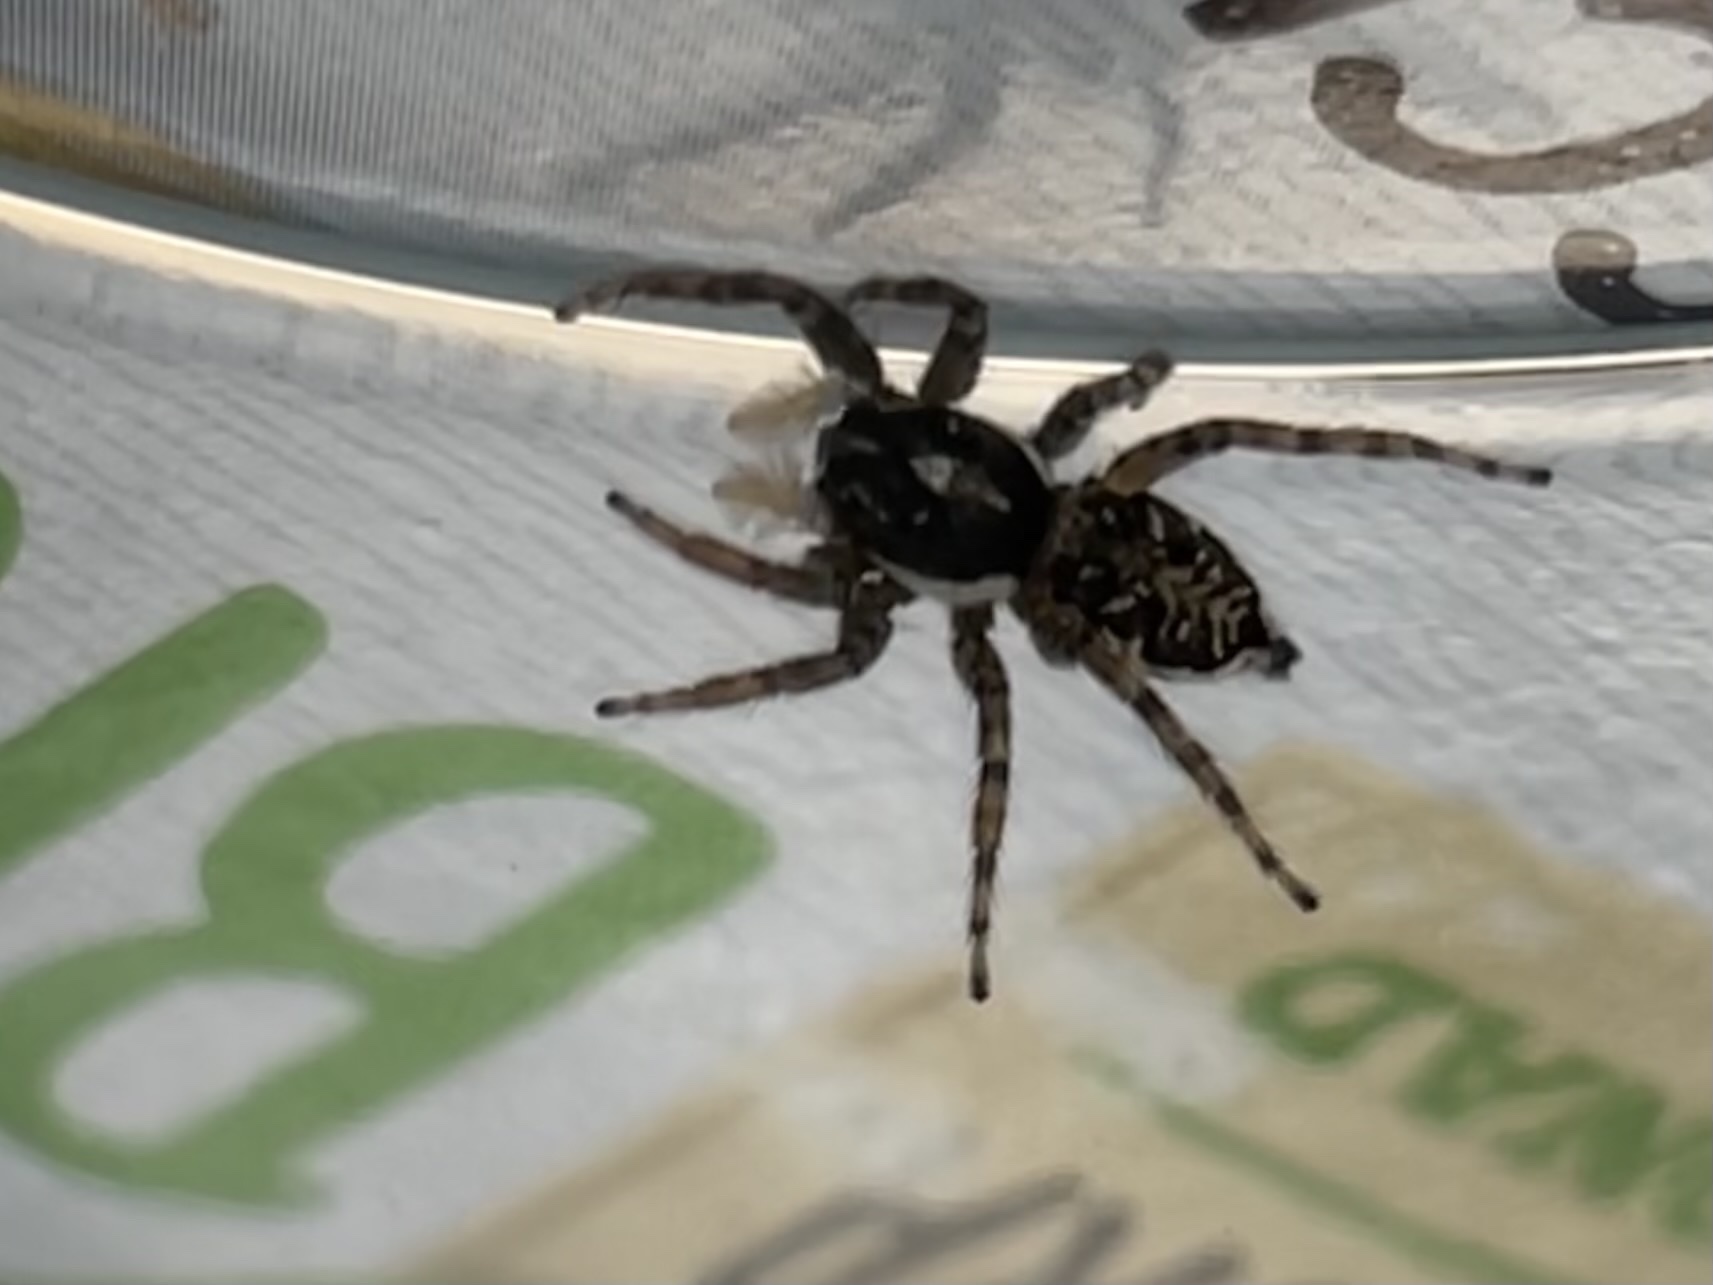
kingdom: Animalia
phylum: Arthropoda
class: Arachnida
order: Araneae
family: Salticidae
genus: Menemerus
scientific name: Menemerus semilimbatus
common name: Jumping spider
